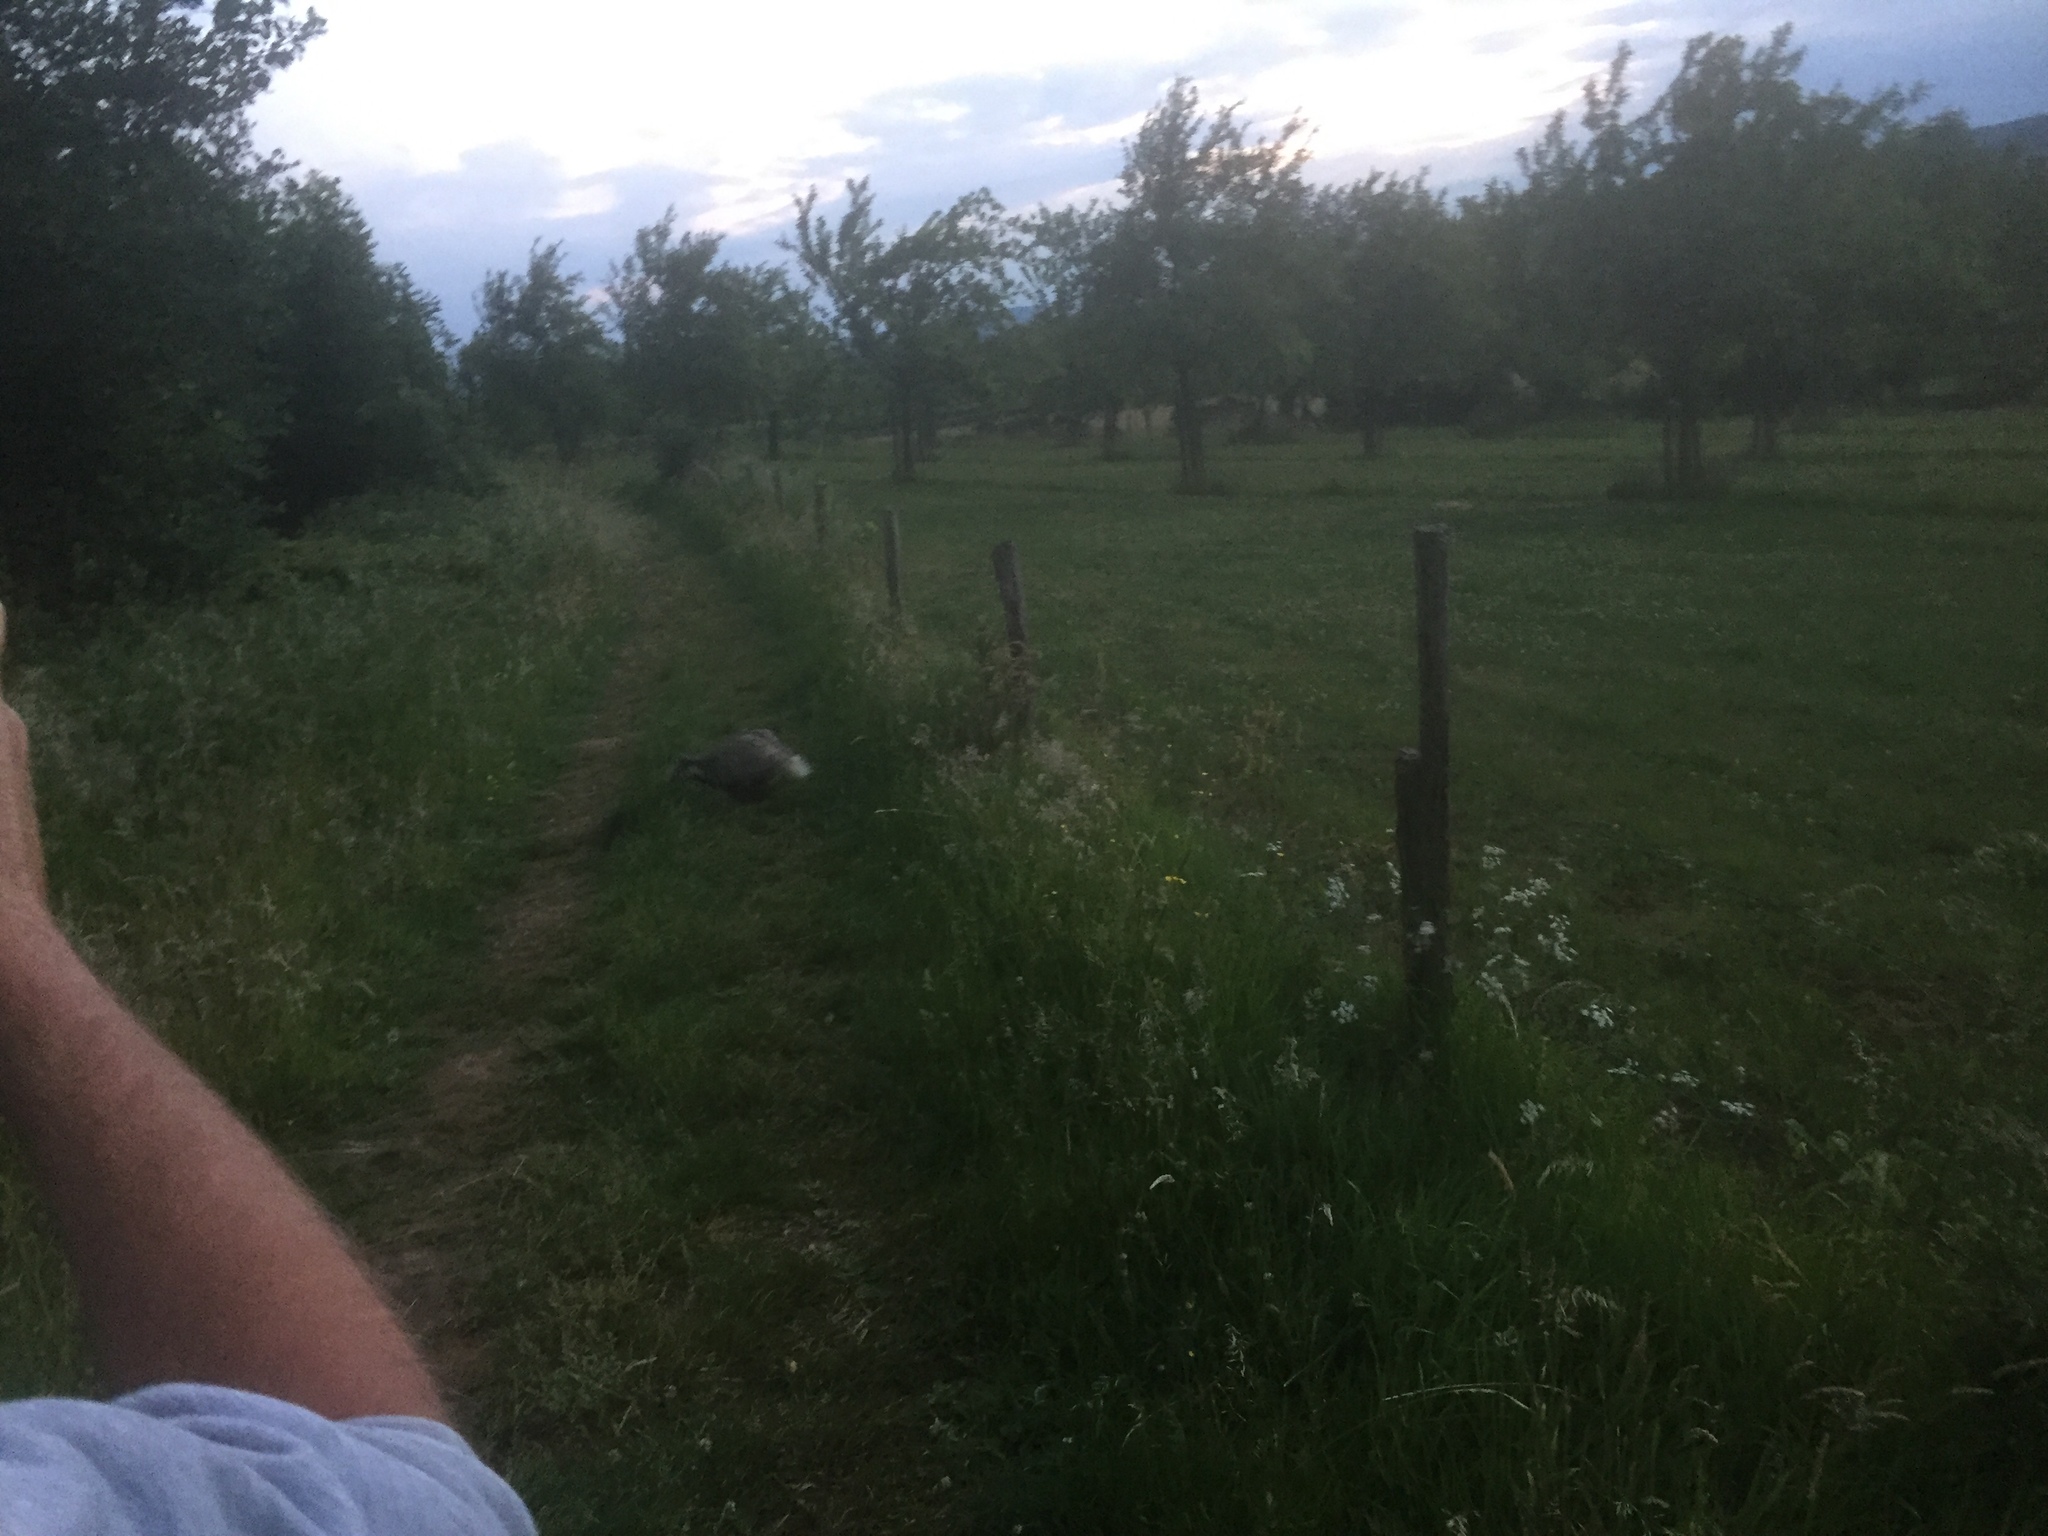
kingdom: Animalia
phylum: Chordata
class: Mammalia
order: Carnivora
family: Mustelidae
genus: Meles
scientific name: Meles meles
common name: Eurasian badger
